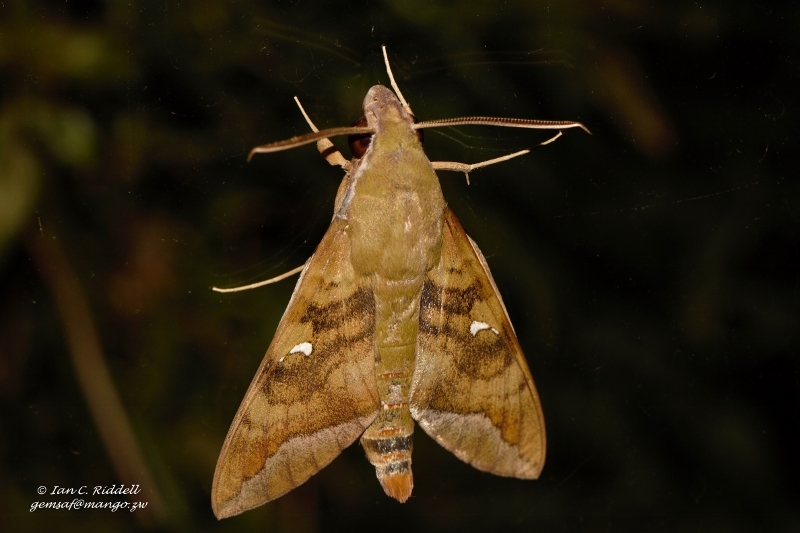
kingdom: Animalia
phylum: Arthropoda
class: Insecta
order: Lepidoptera
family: Sphingidae
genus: Nephele
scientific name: Nephele comma
